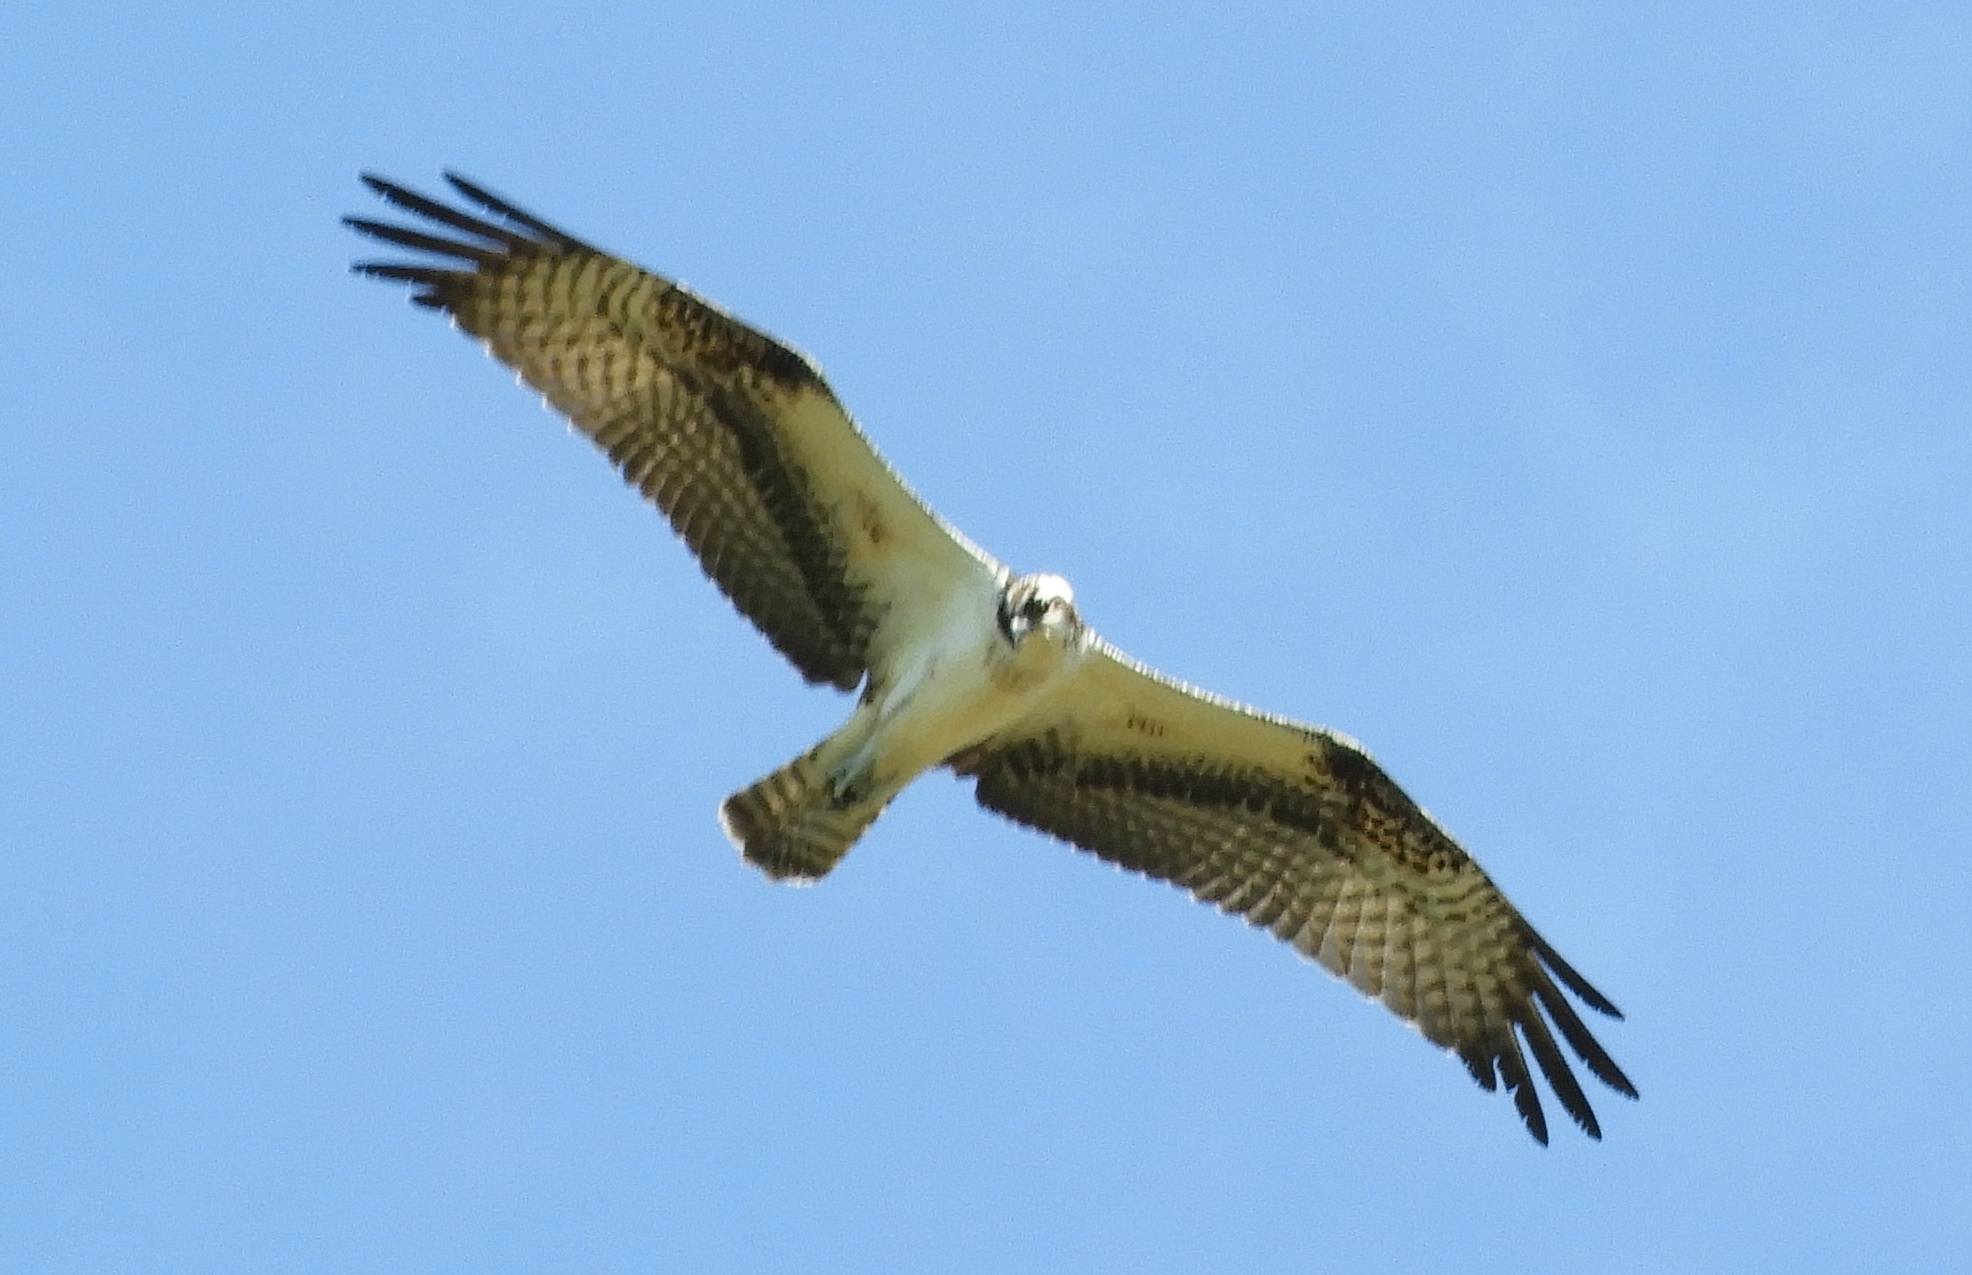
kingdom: Animalia
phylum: Chordata
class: Aves
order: Accipitriformes
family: Pandionidae
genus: Pandion
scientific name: Pandion haliaetus
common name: Osprey
